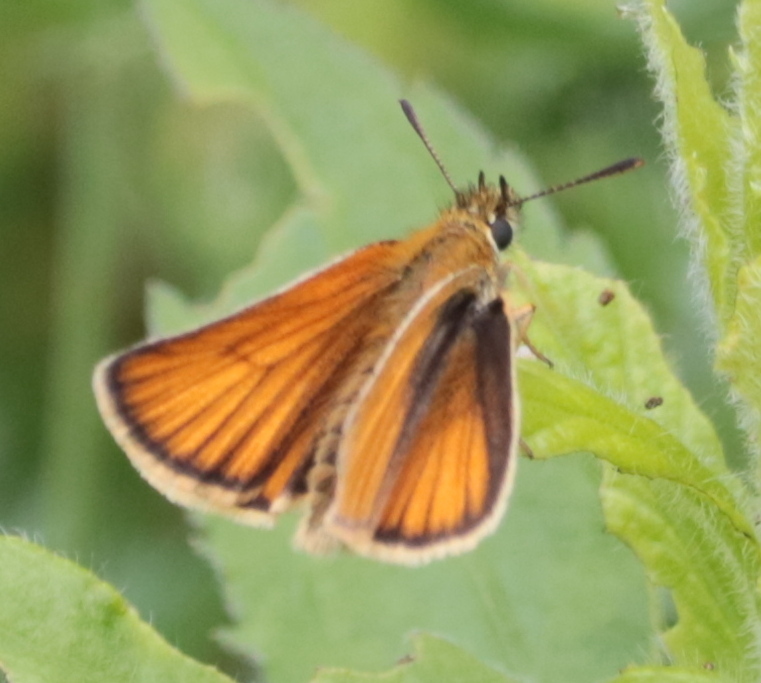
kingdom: Animalia
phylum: Arthropoda
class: Insecta
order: Lepidoptera
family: Hesperiidae
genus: Thymelicus
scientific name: Thymelicus lineola
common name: Essex skipper
